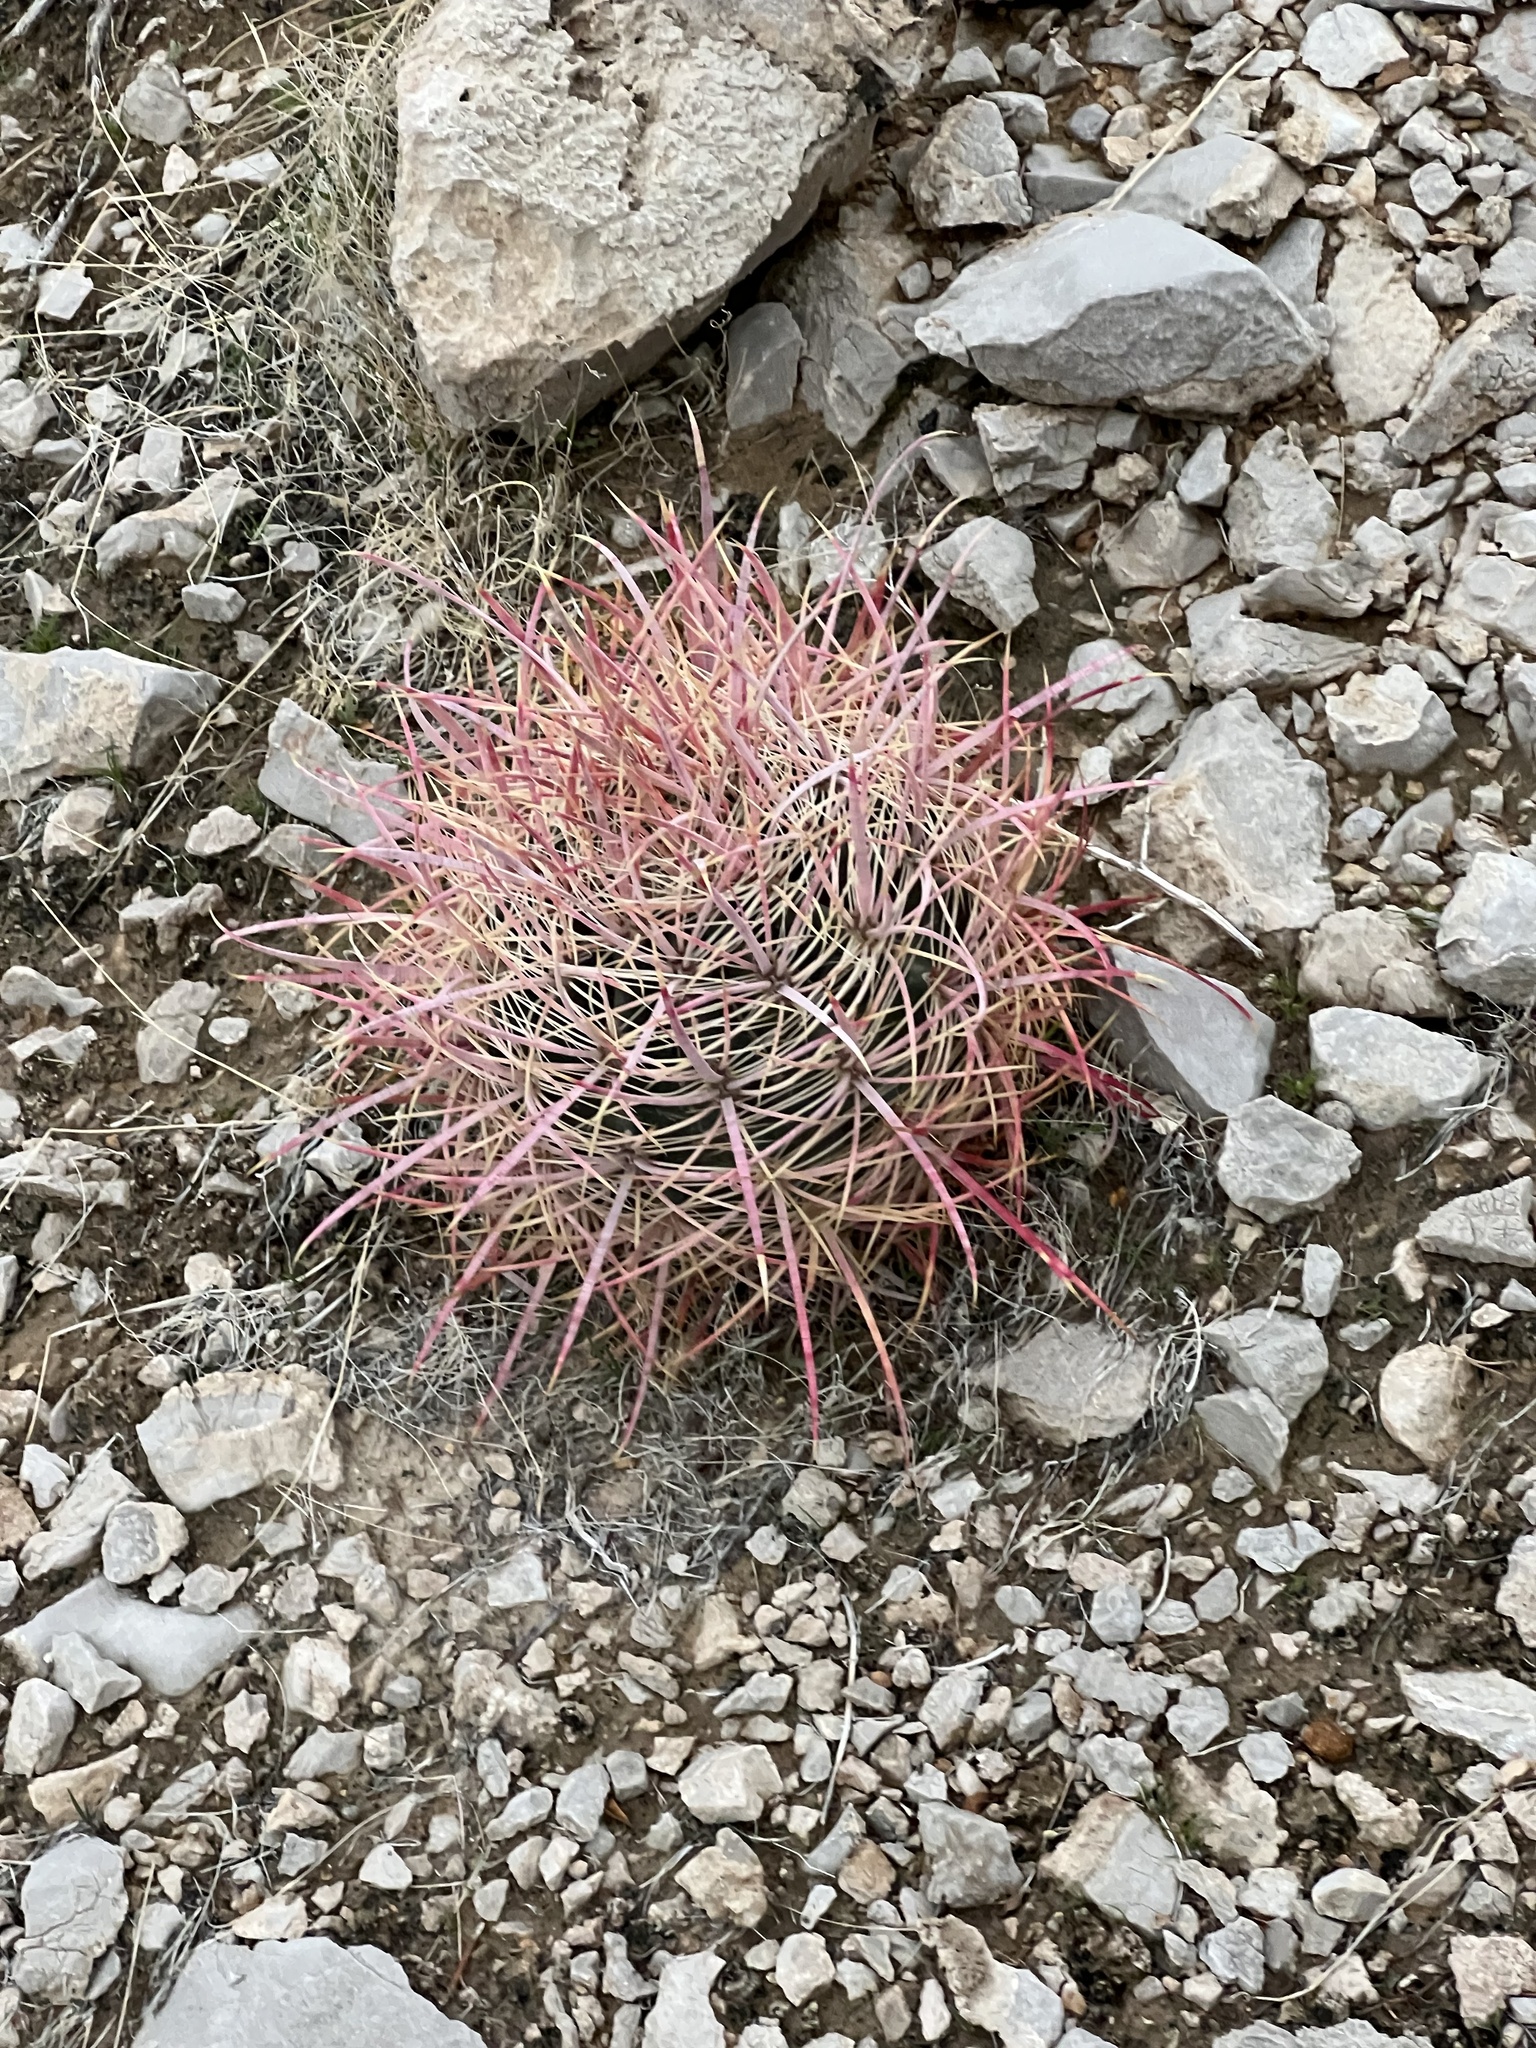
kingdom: Plantae
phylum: Tracheophyta
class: Magnoliopsida
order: Caryophyllales
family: Cactaceae
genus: Ferocactus
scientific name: Ferocactus cylindraceus
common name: California barrel cactus
